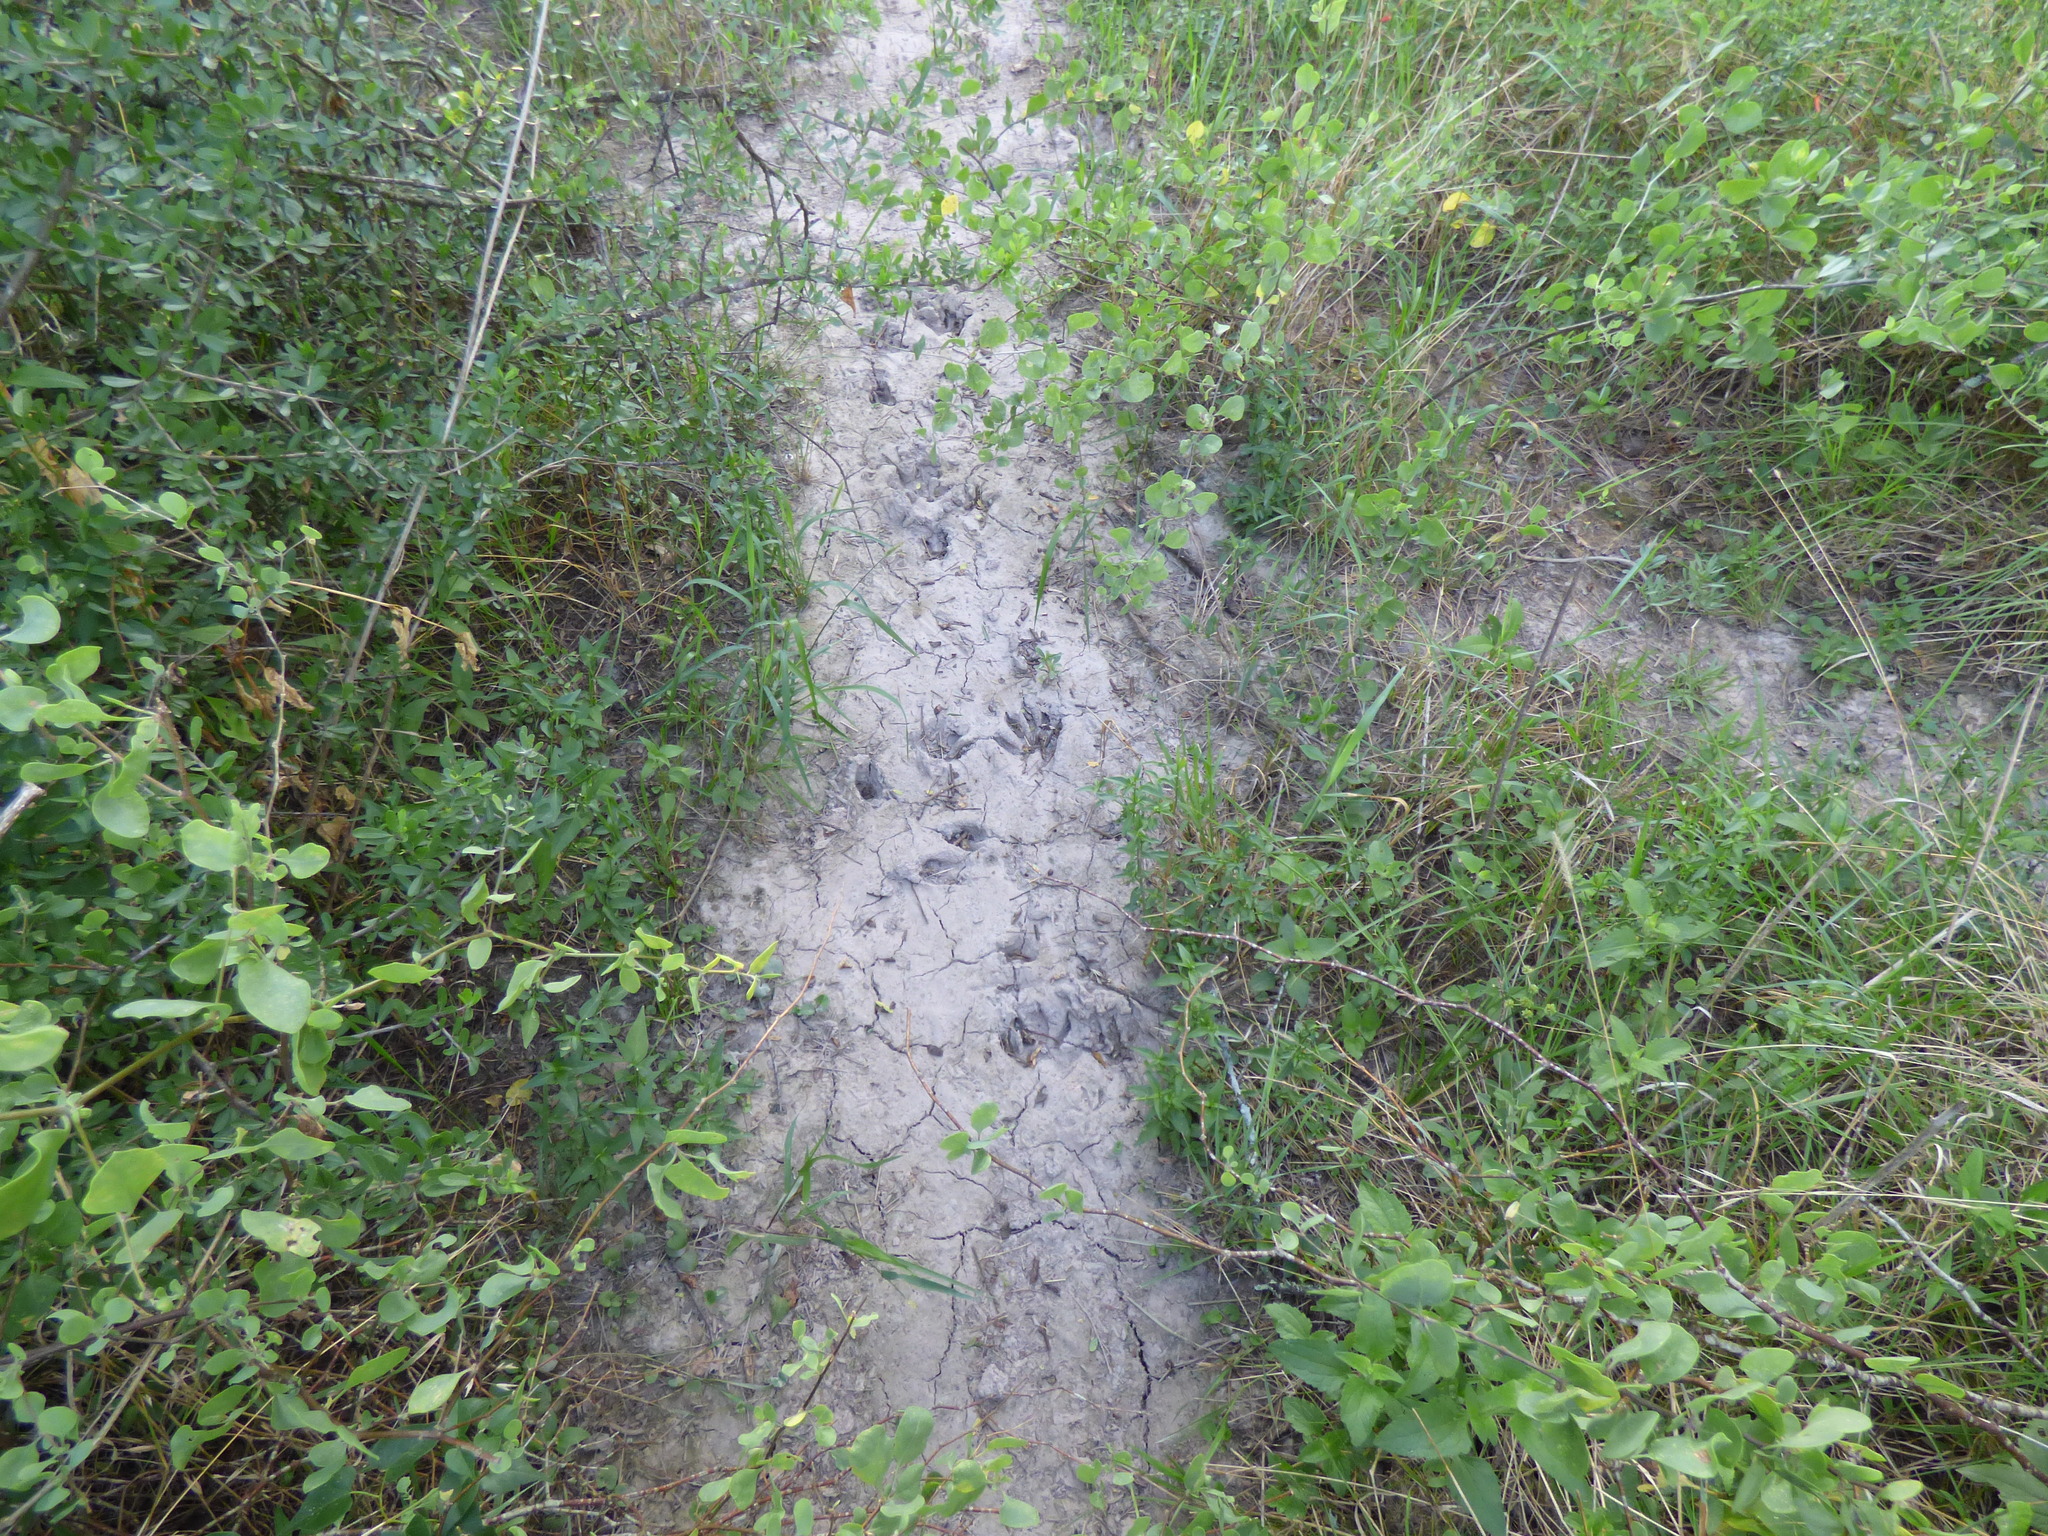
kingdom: Animalia
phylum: Chordata
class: Mammalia
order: Carnivora
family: Procyonidae
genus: Procyon
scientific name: Procyon cancrivorus
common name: Crab-eating raccoon
